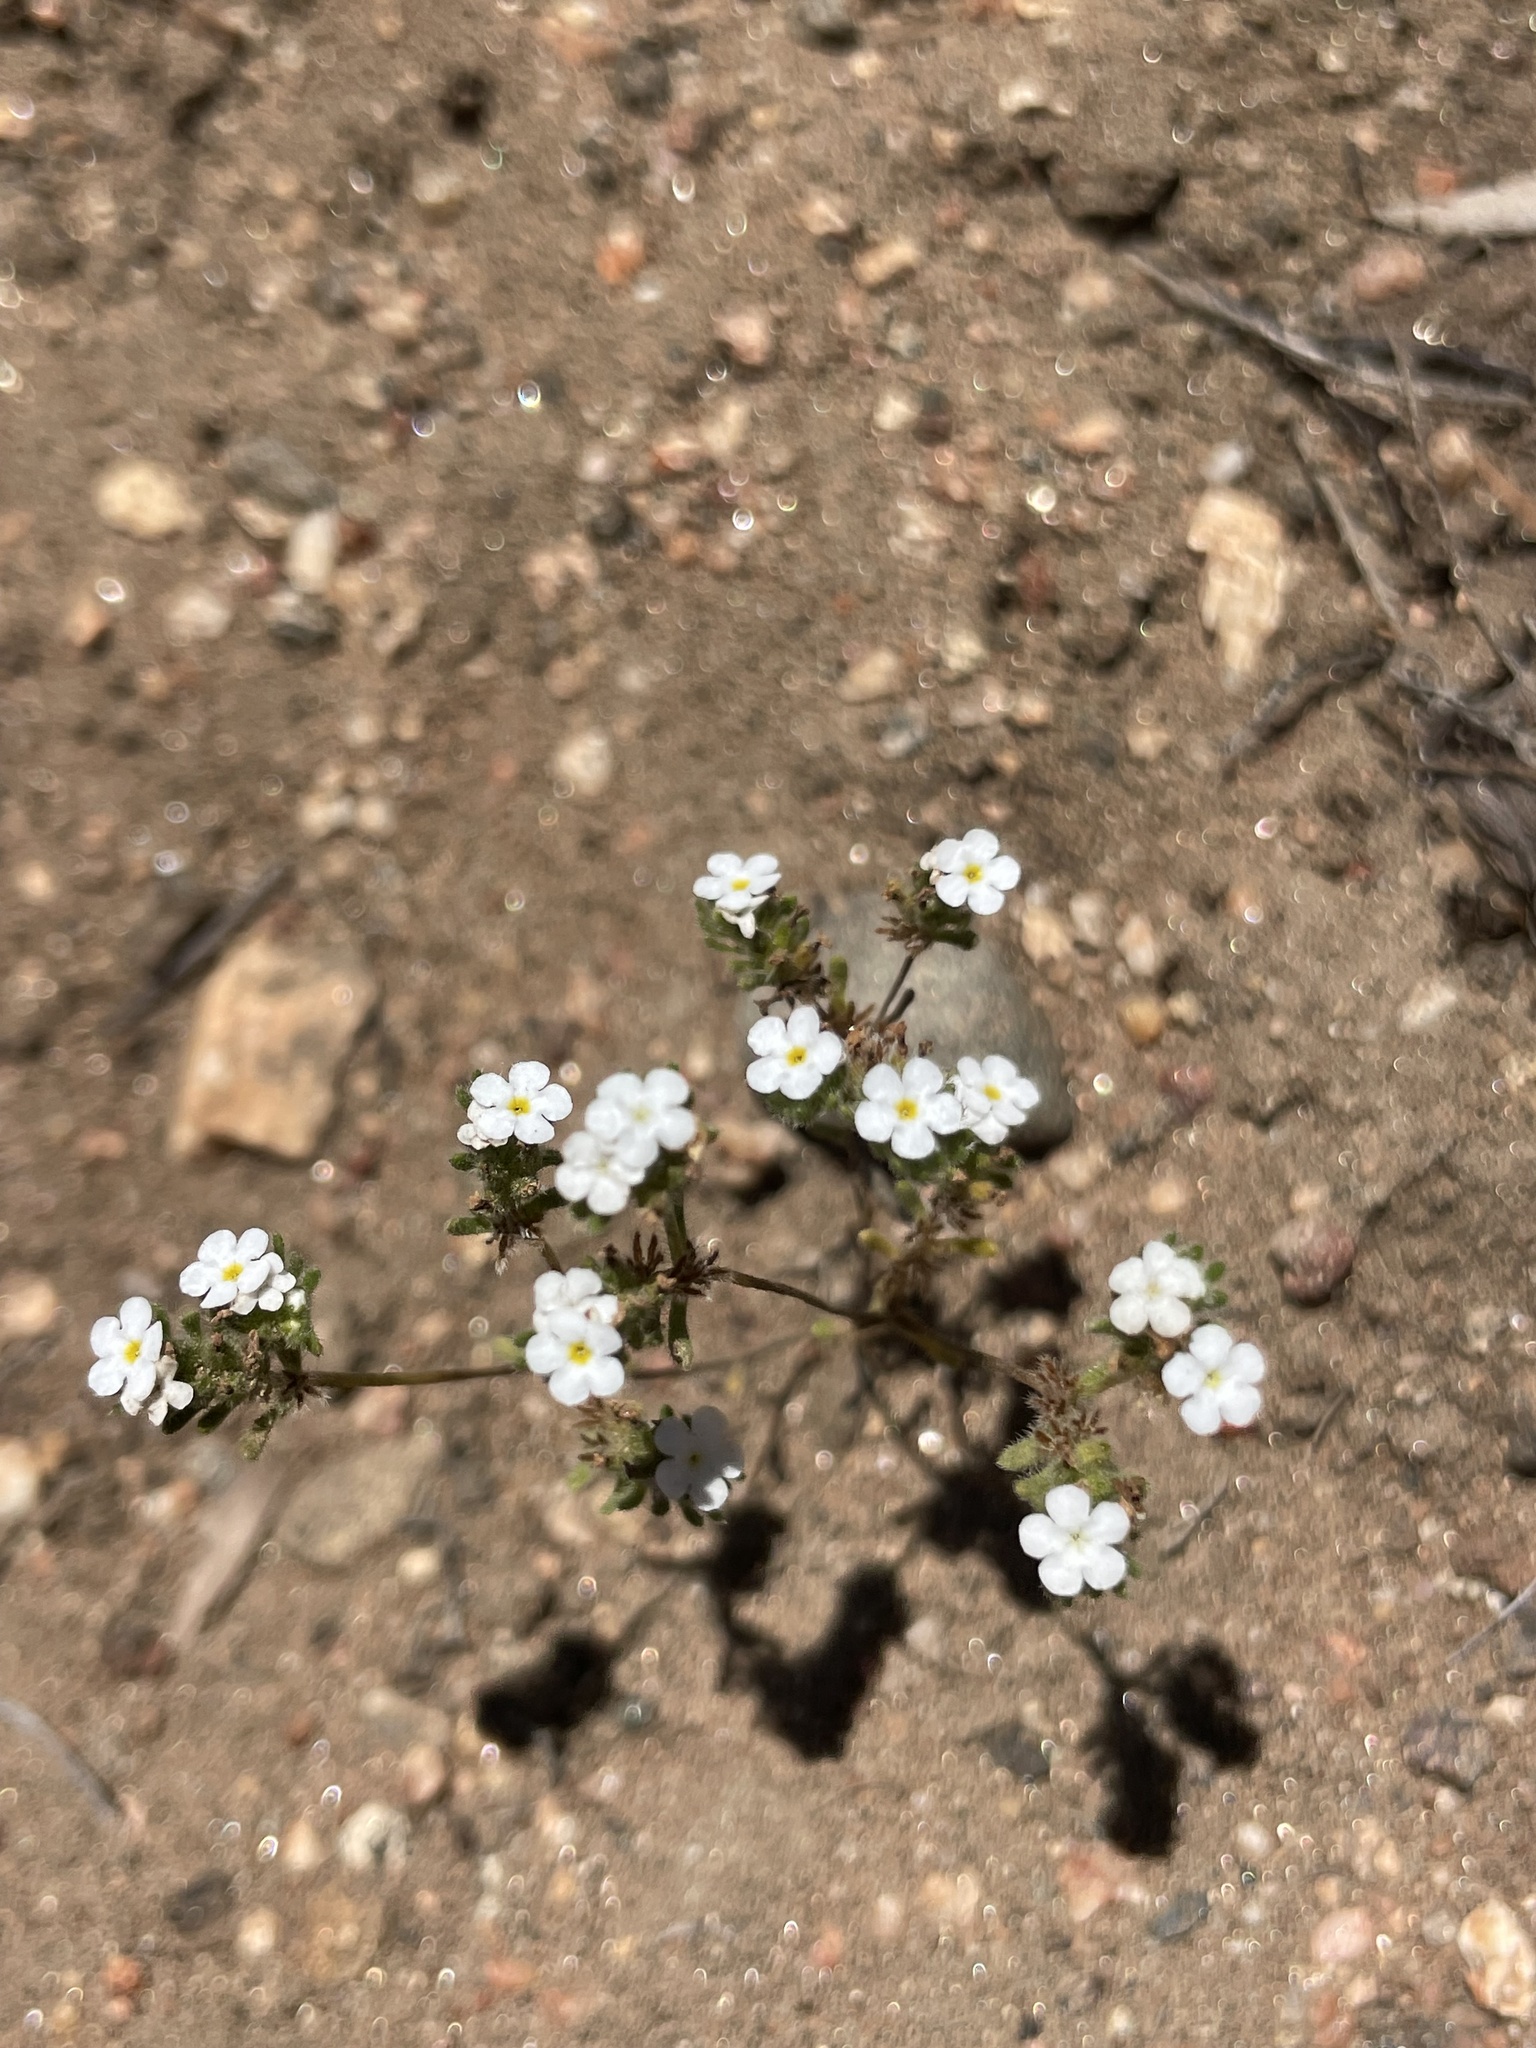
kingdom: Plantae
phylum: Tracheophyta
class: Magnoliopsida
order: Boraginales
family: Boraginaceae
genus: Eremocarya
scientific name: Eremocarya lepida
